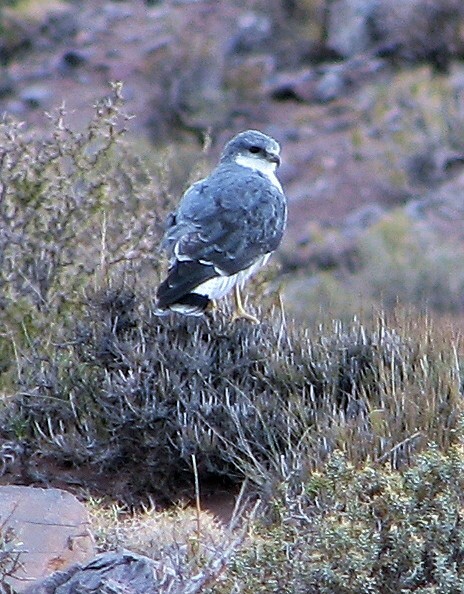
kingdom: Animalia
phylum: Chordata
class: Aves
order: Accipitriformes
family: Accipitridae
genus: Buteo
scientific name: Buteo polyosoma
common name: Variable hawk
